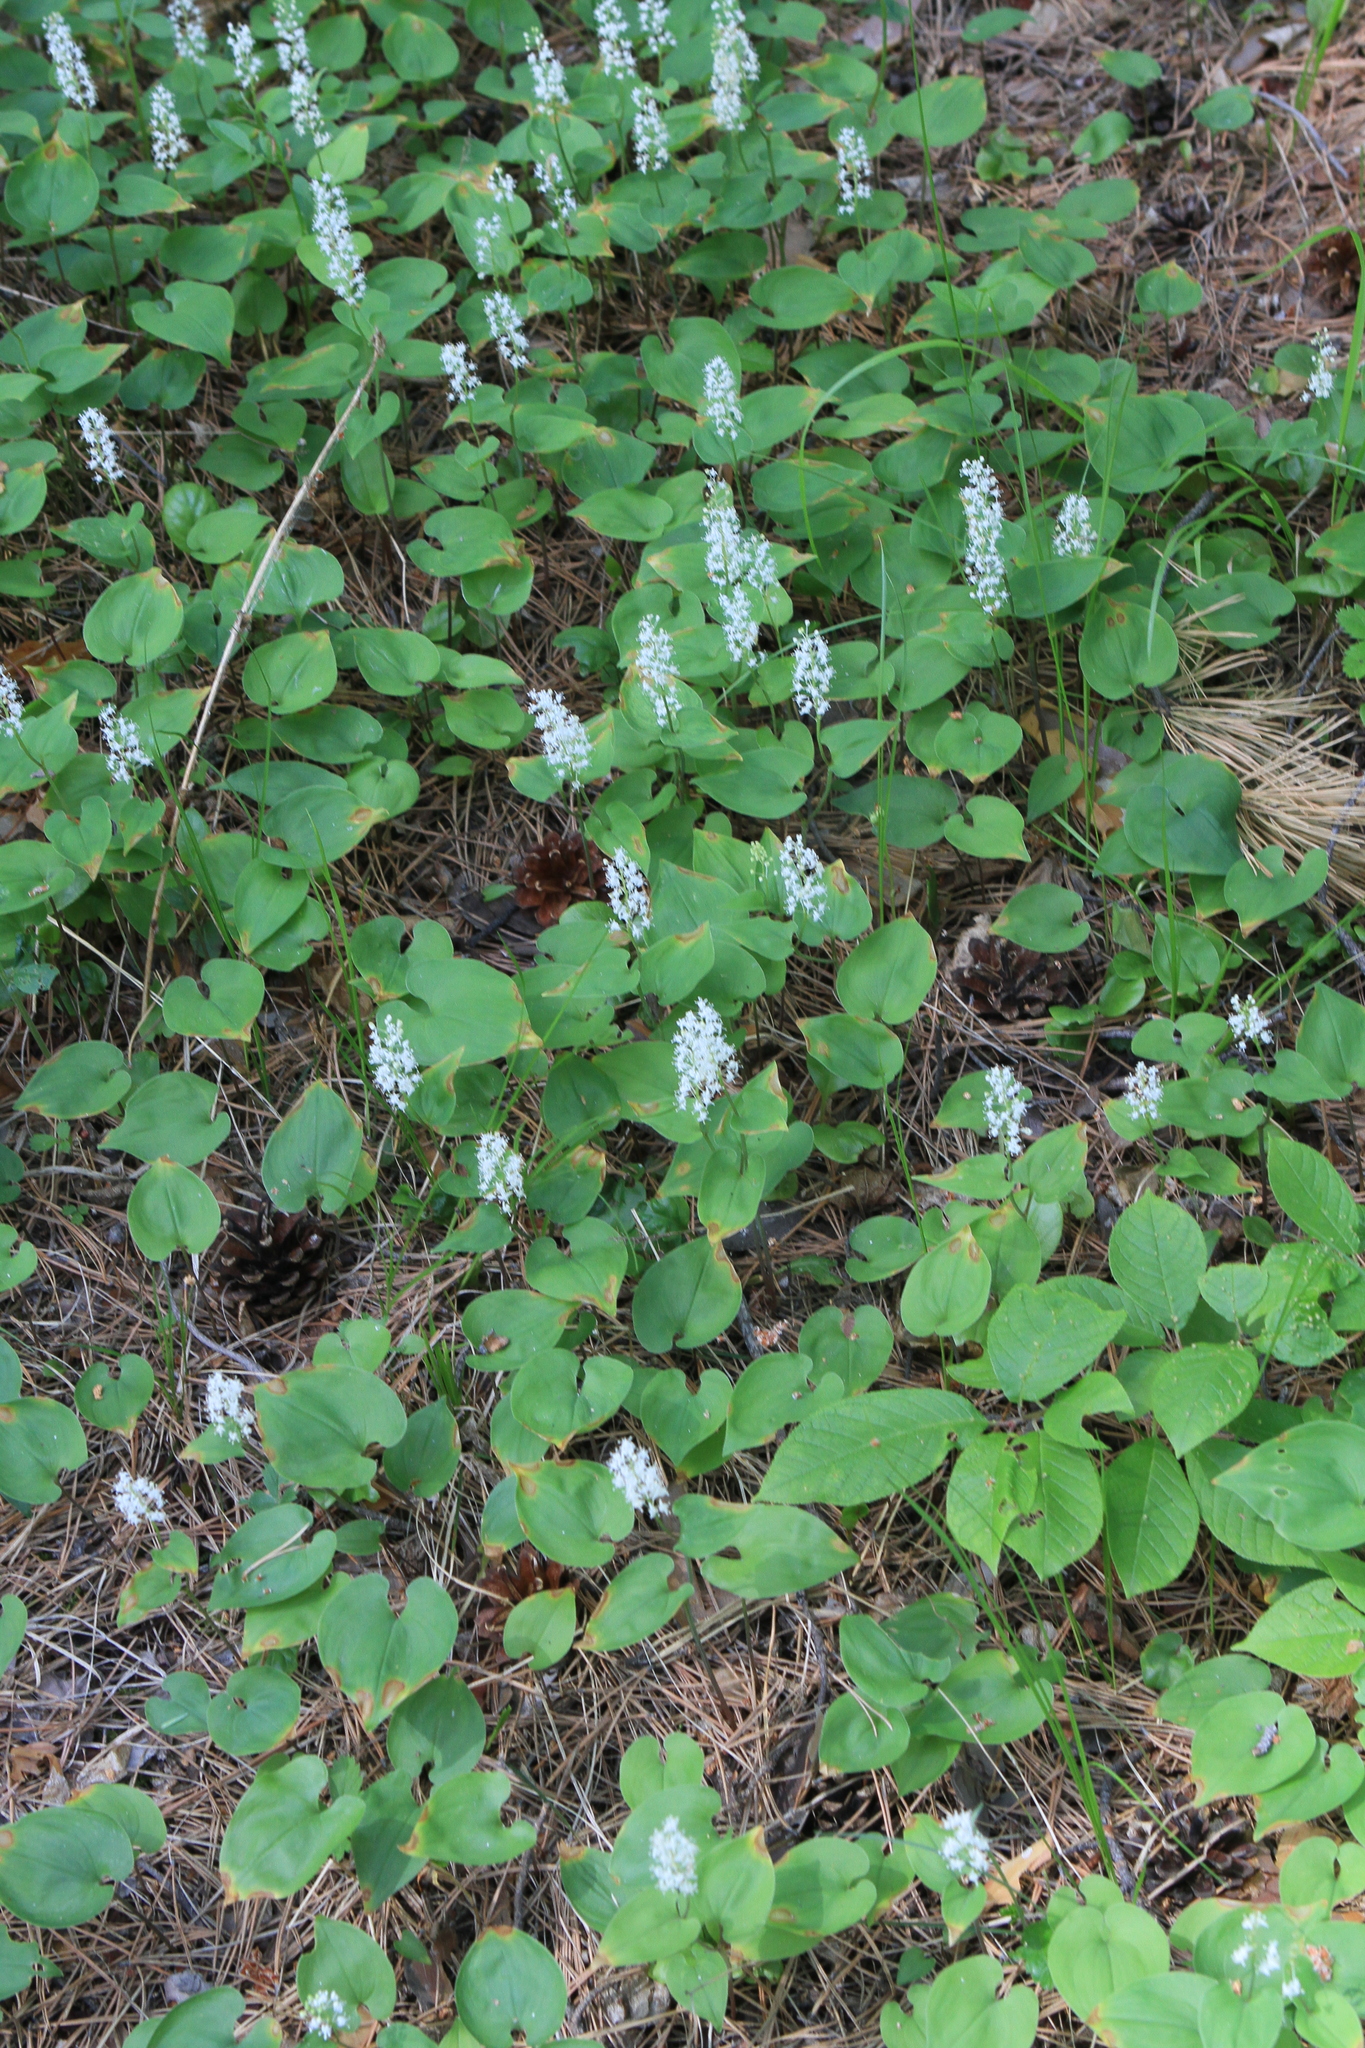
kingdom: Plantae
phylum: Tracheophyta
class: Liliopsida
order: Asparagales
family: Asparagaceae
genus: Maianthemum
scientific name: Maianthemum bifolium
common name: May lily
